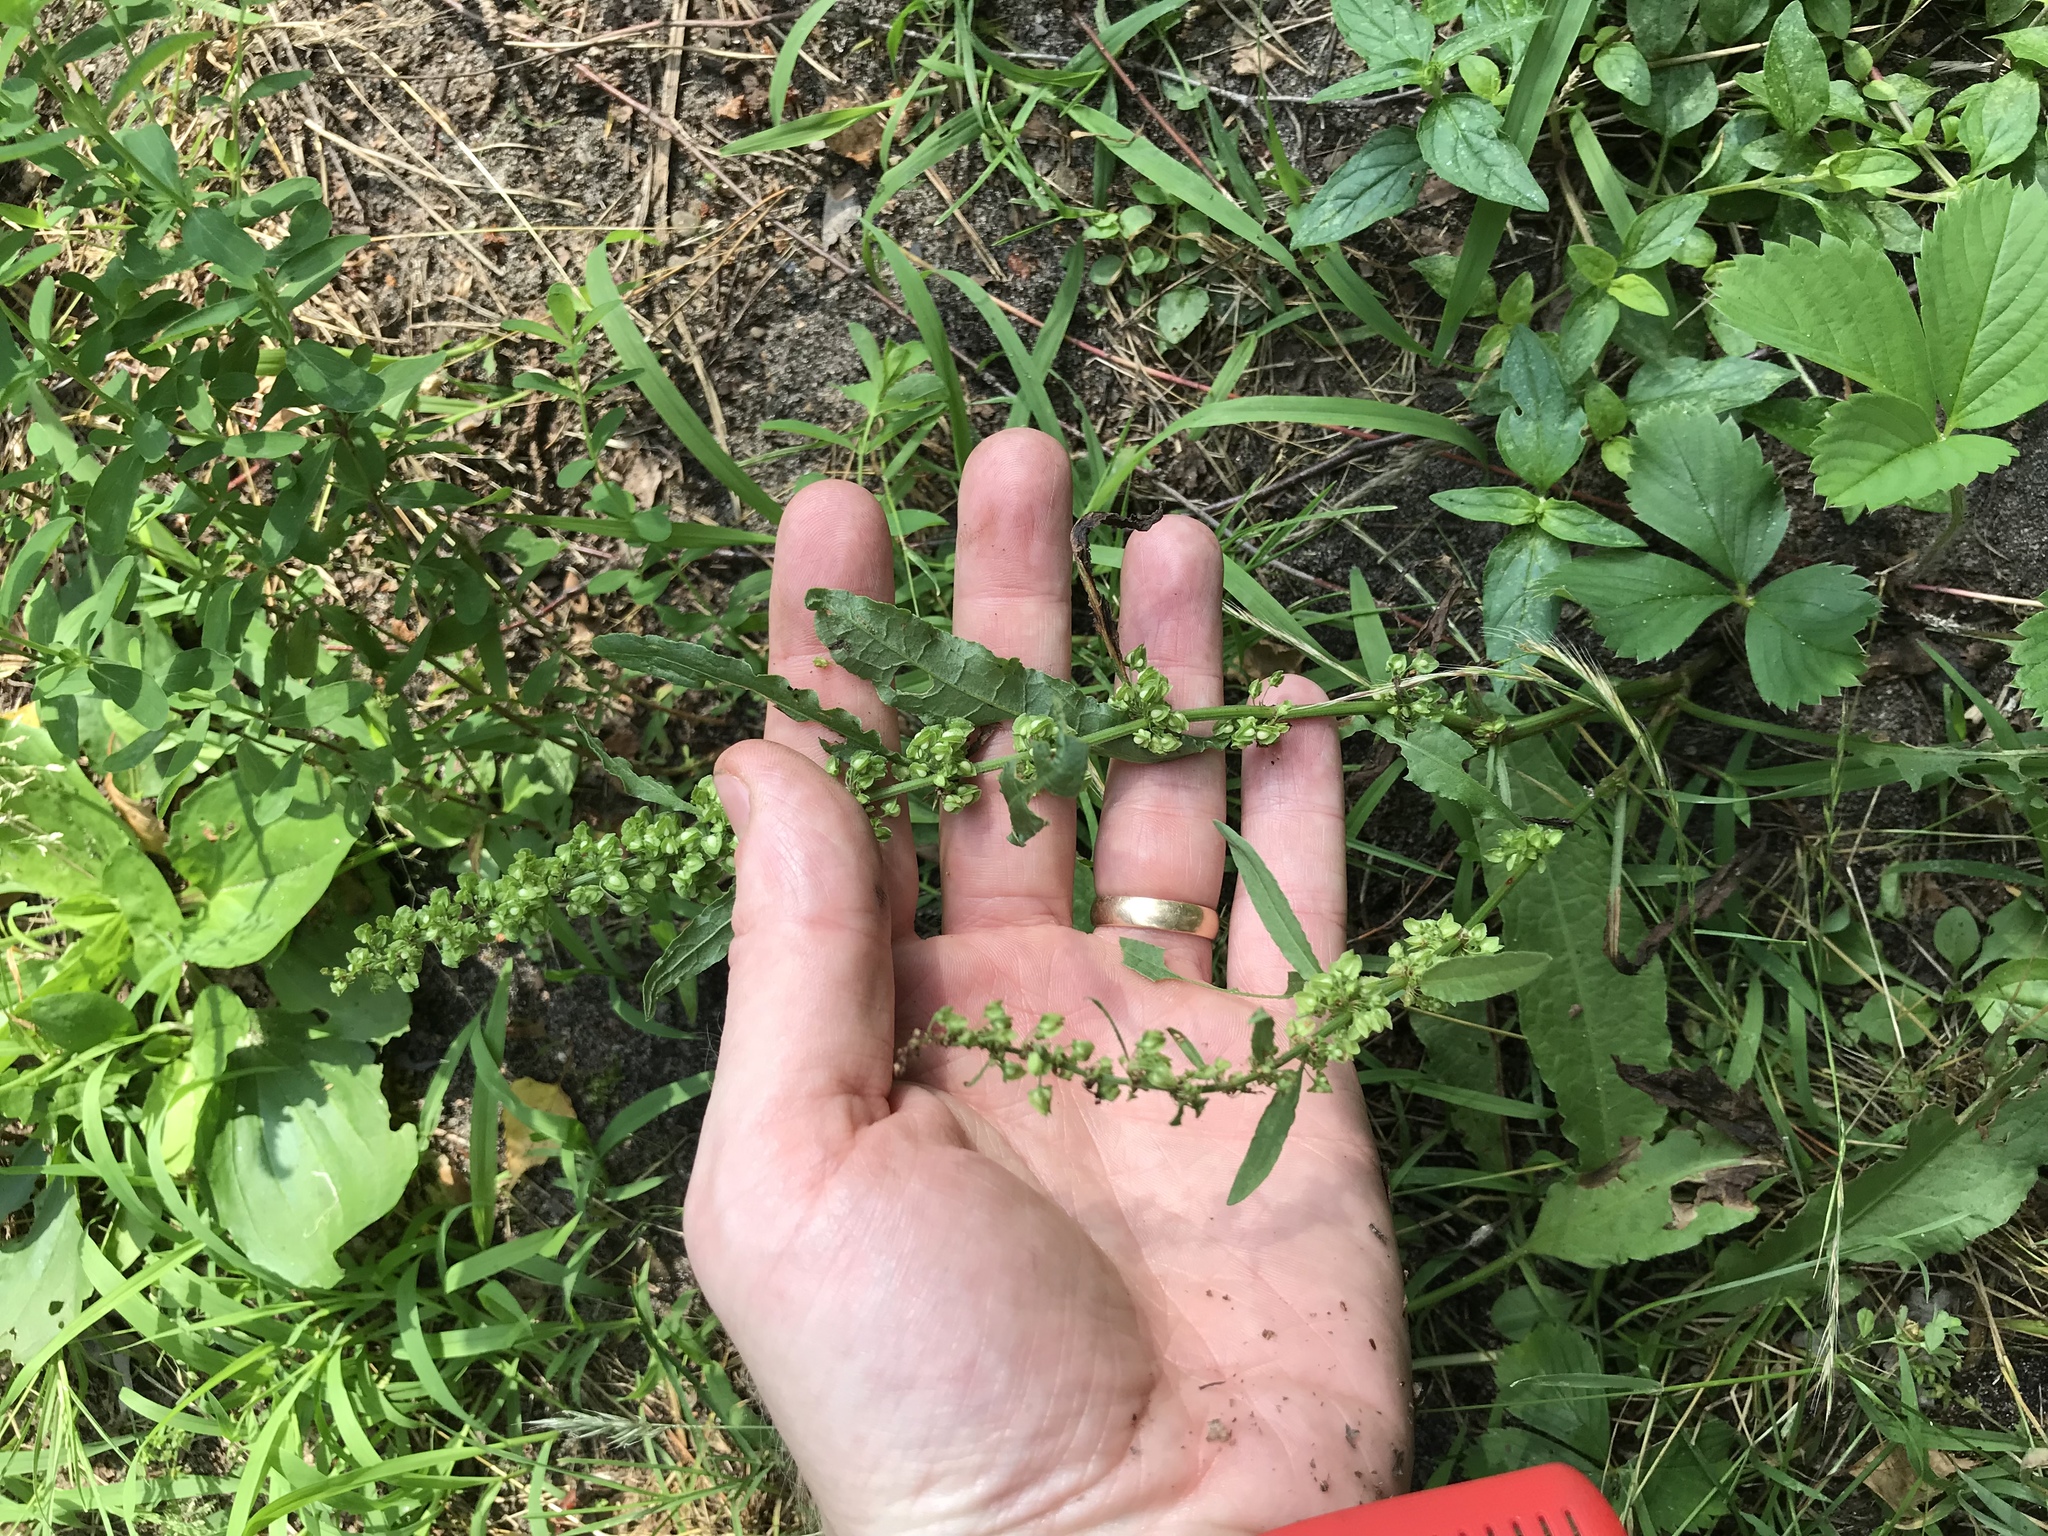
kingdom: Plantae
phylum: Tracheophyta
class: Magnoliopsida
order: Caryophyllales
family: Polygonaceae
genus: Rumex
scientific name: Rumex crispus
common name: Curled dock
